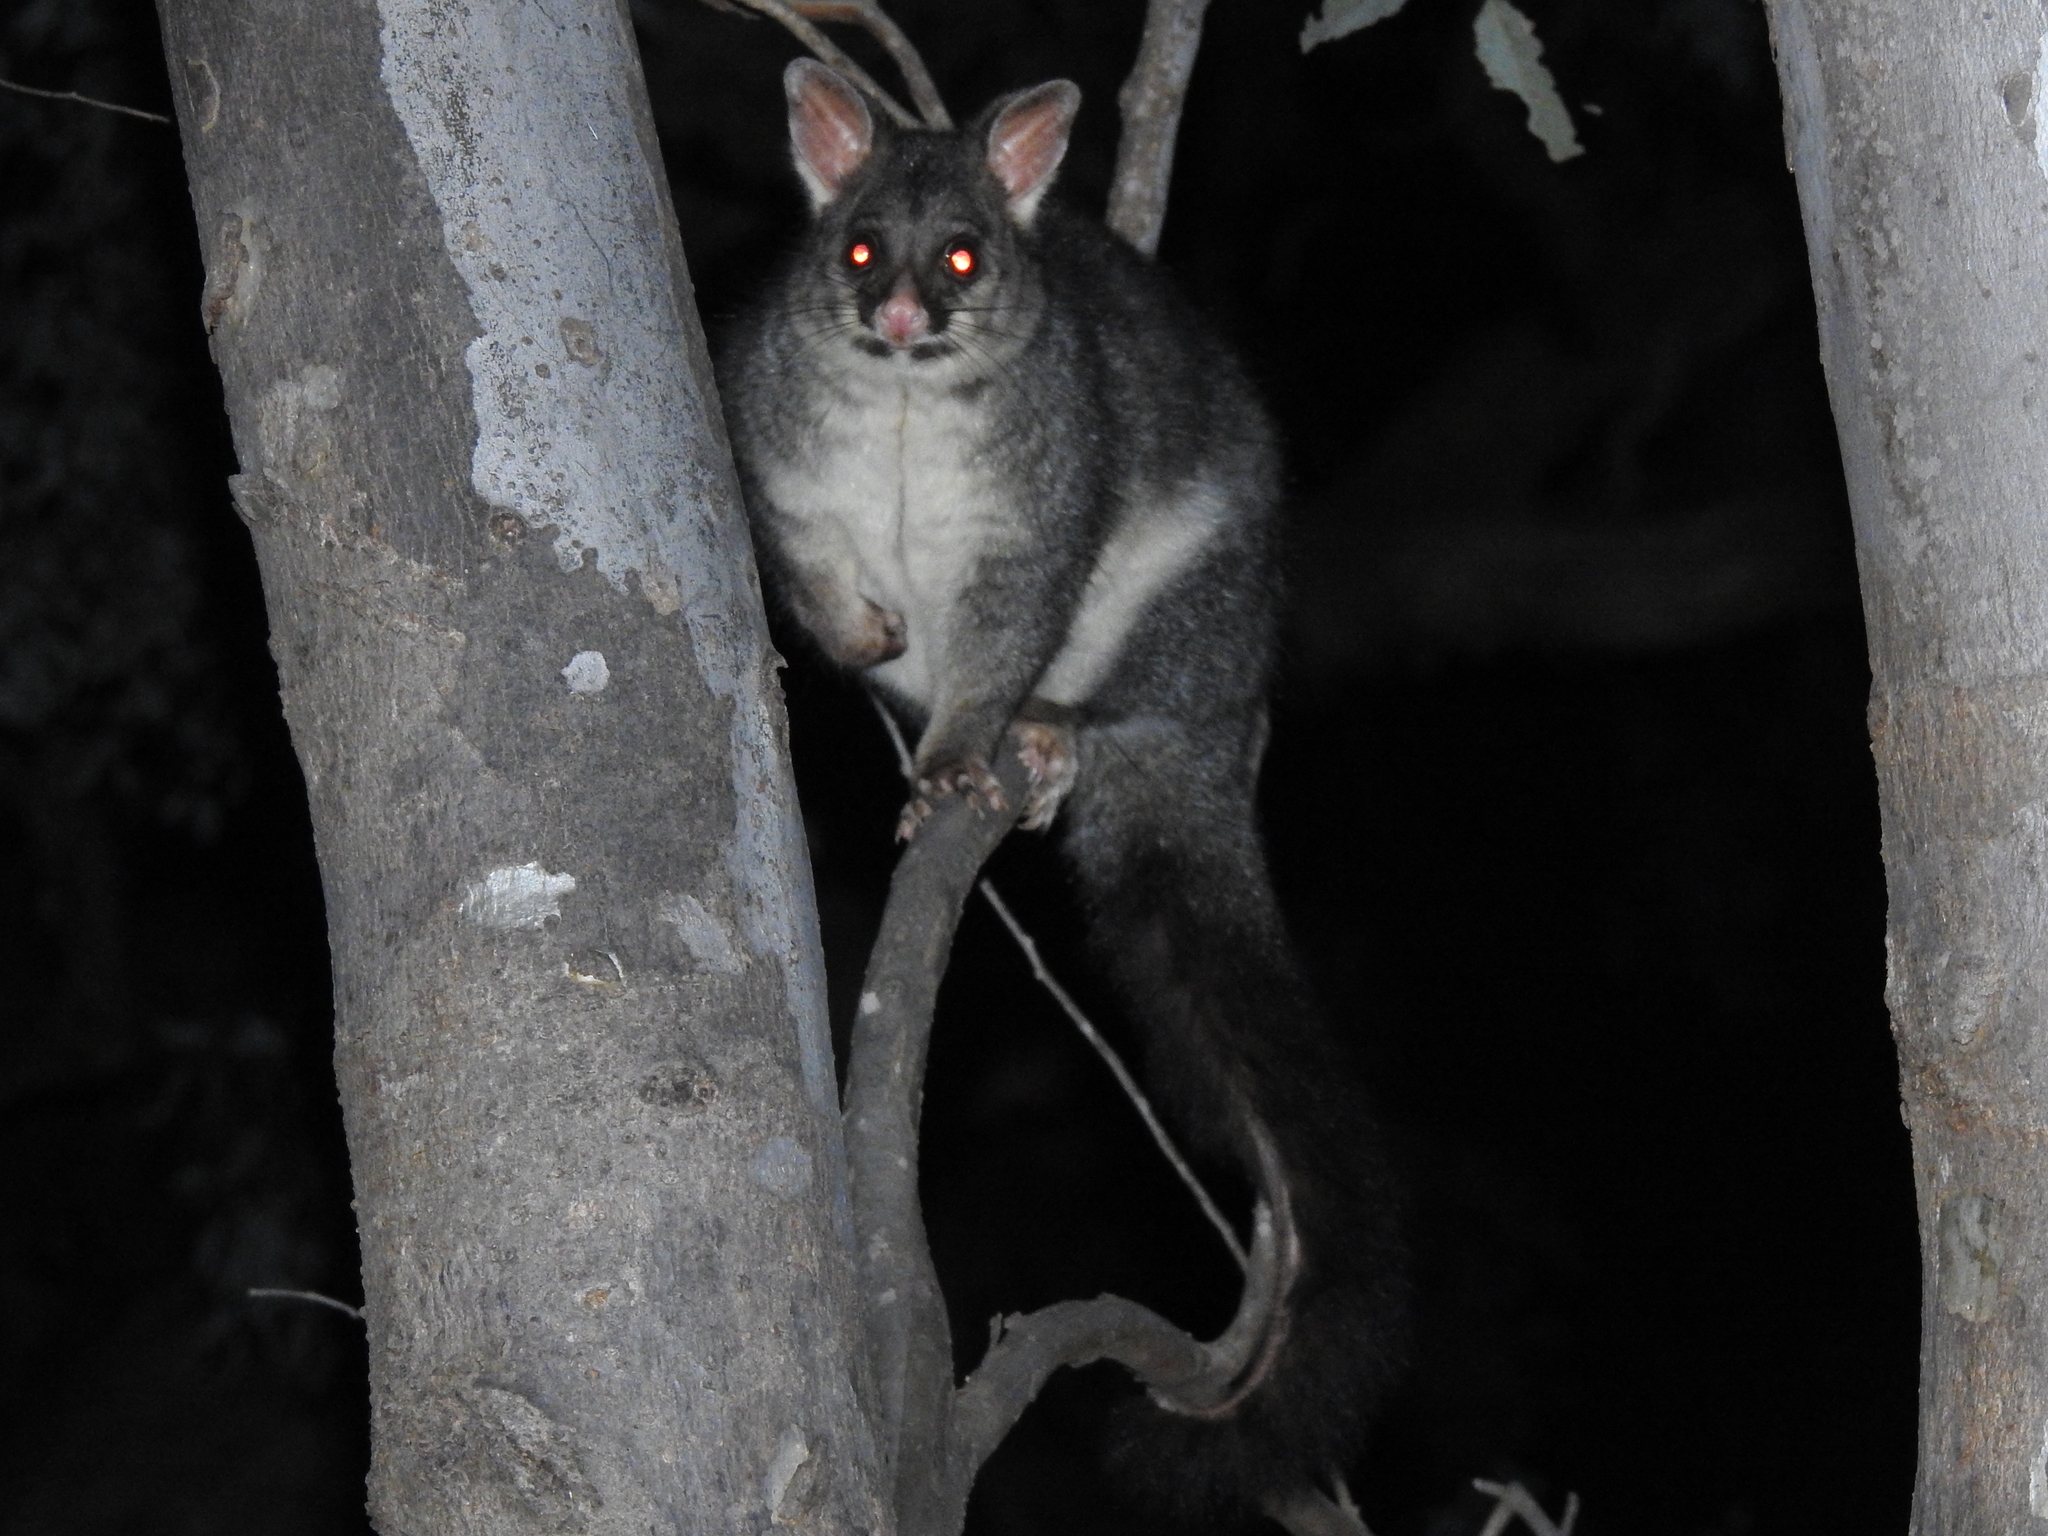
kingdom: Animalia
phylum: Chordata
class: Mammalia
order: Diprotodontia
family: Phalangeridae
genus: Trichosurus
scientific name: Trichosurus vulpecula
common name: Common brushtail
